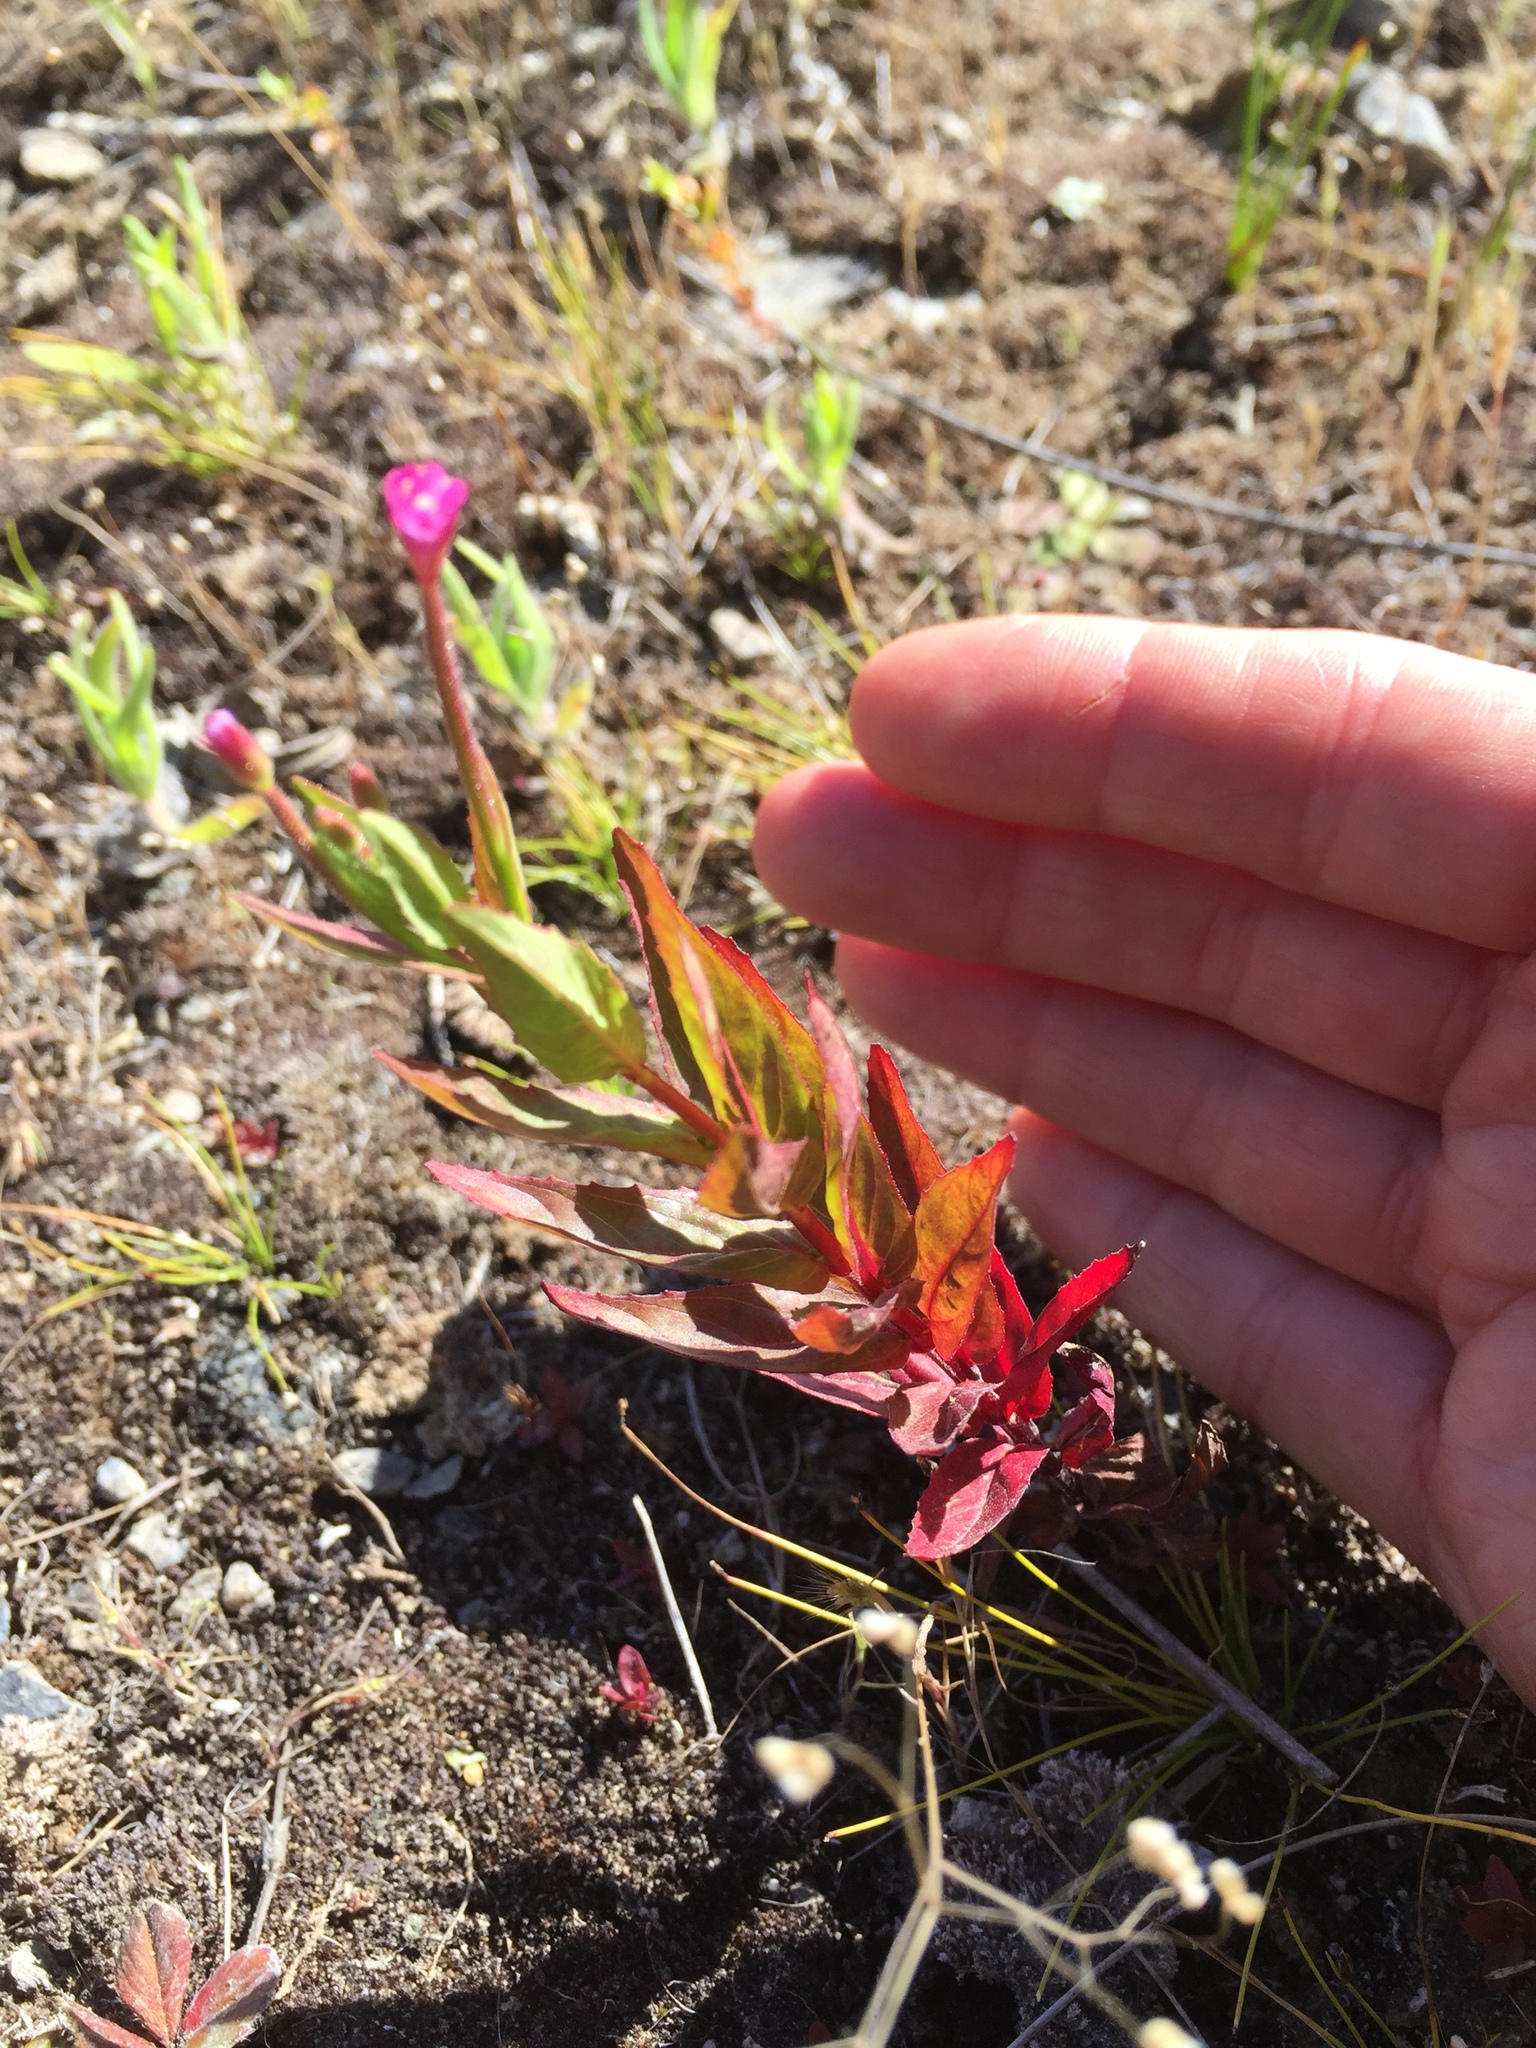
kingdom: Plantae
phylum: Tracheophyta
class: Magnoliopsida
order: Myrtales
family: Onagraceae
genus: Epilobium
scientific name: Epilobium ciliatum
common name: American willowherb
